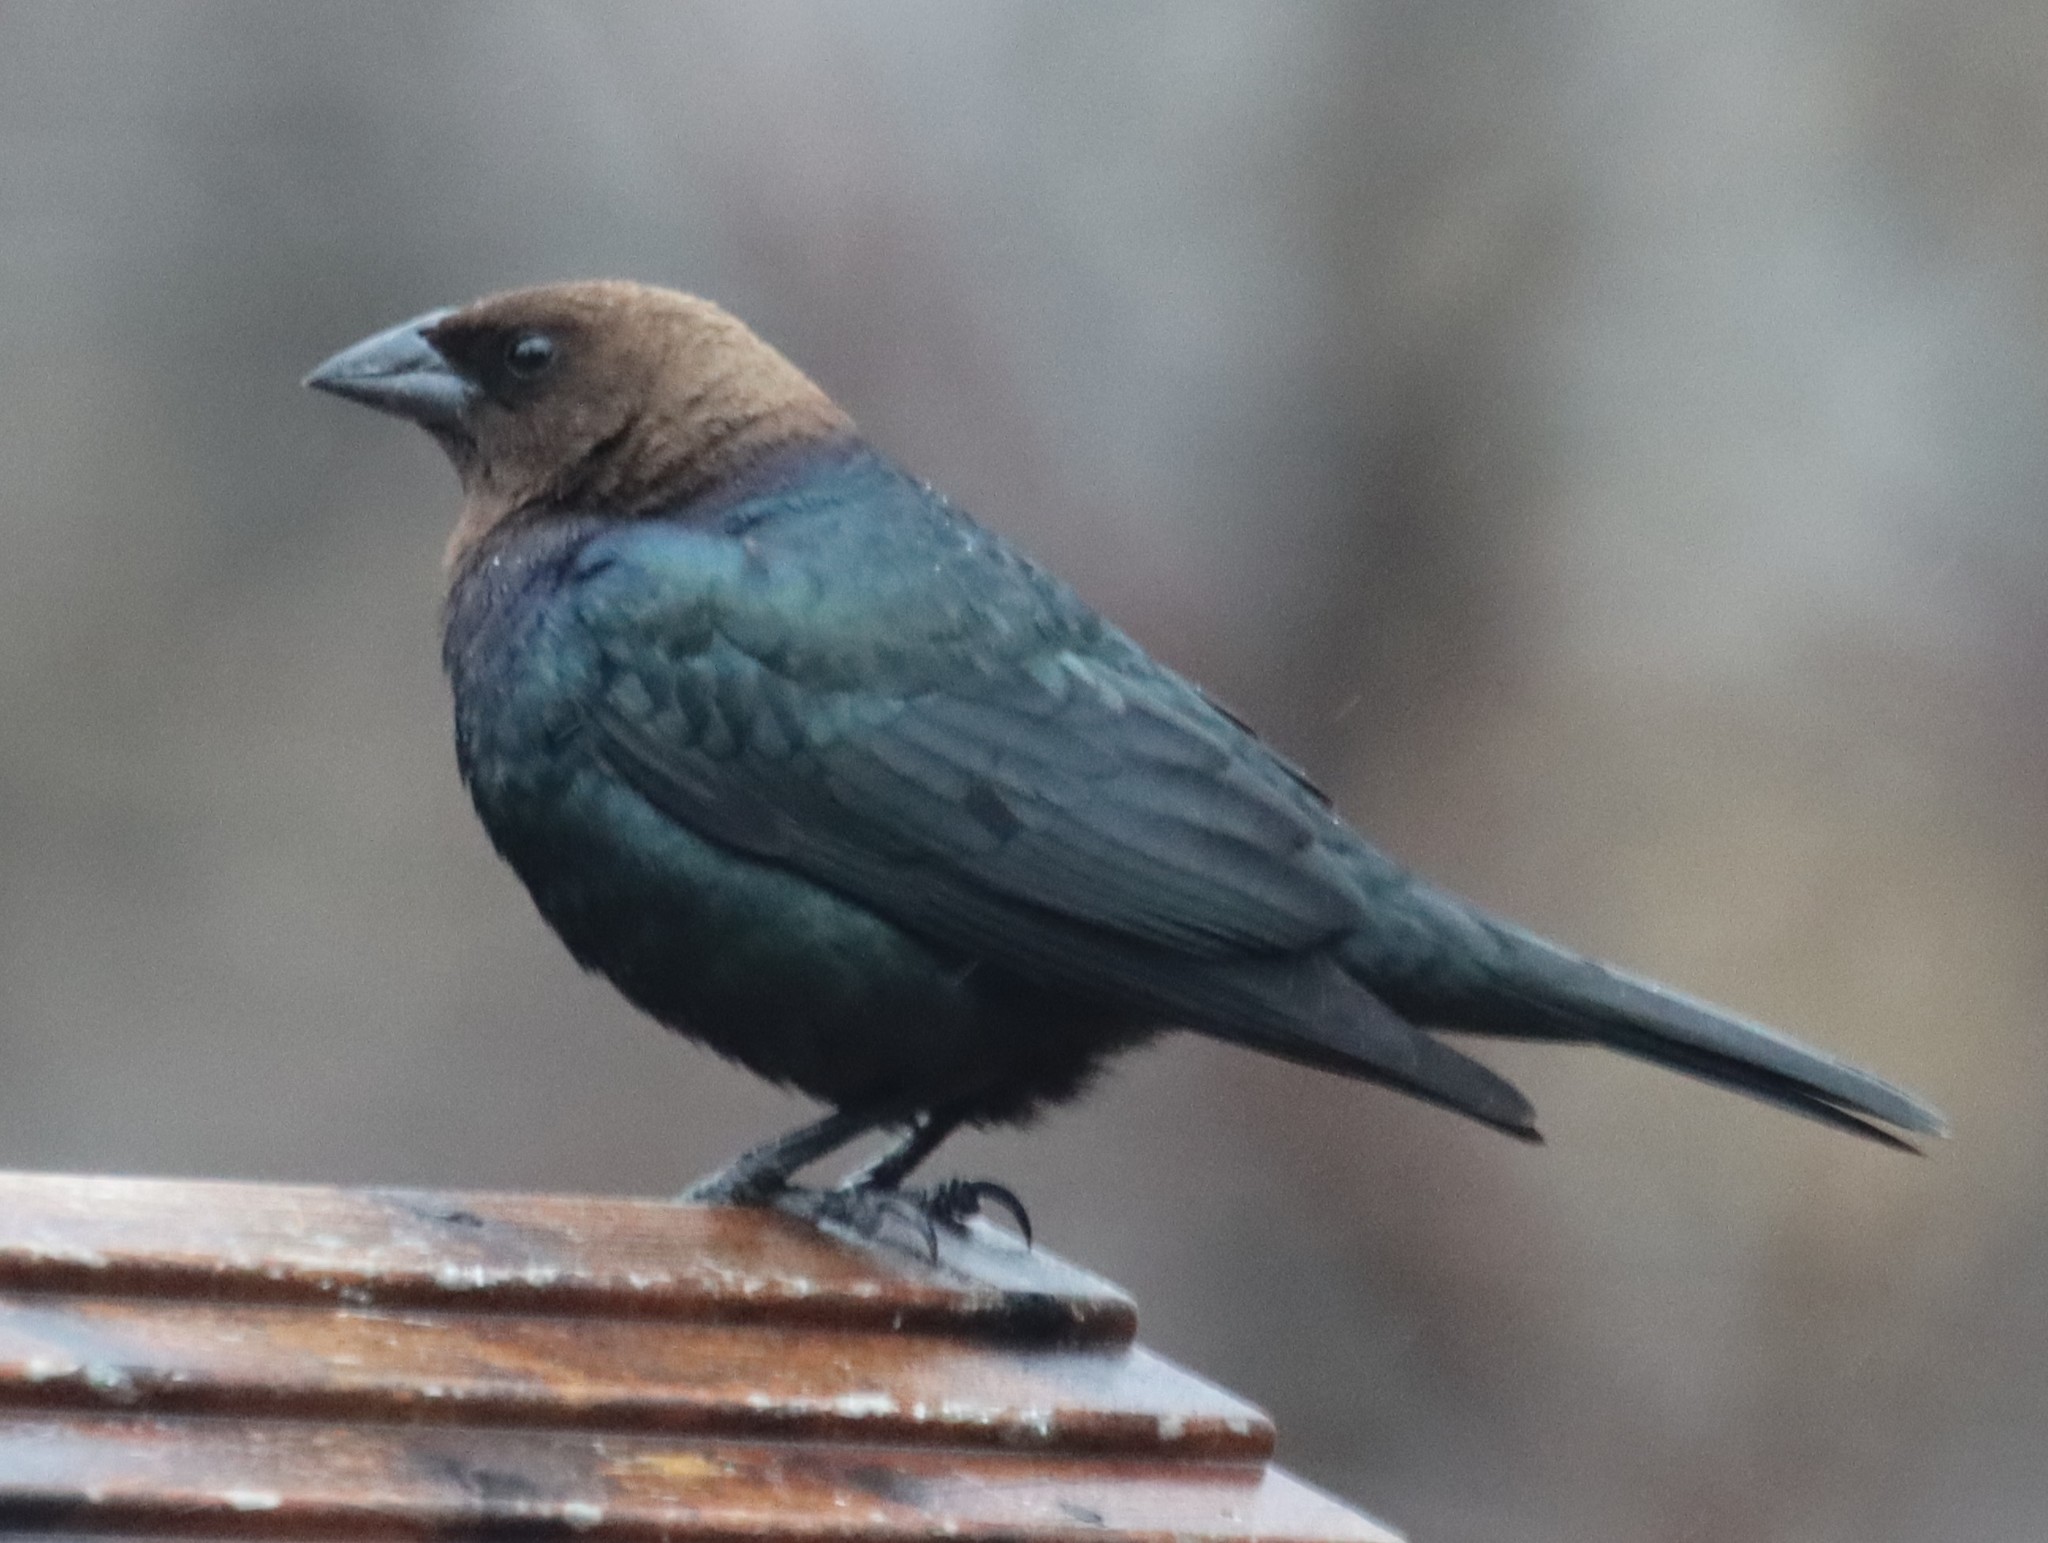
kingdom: Animalia
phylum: Chordata
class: Aves
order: Passeriformes
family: Icteridae
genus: Molothrus
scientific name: Molothrus ater
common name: Brown-headed cowbird
